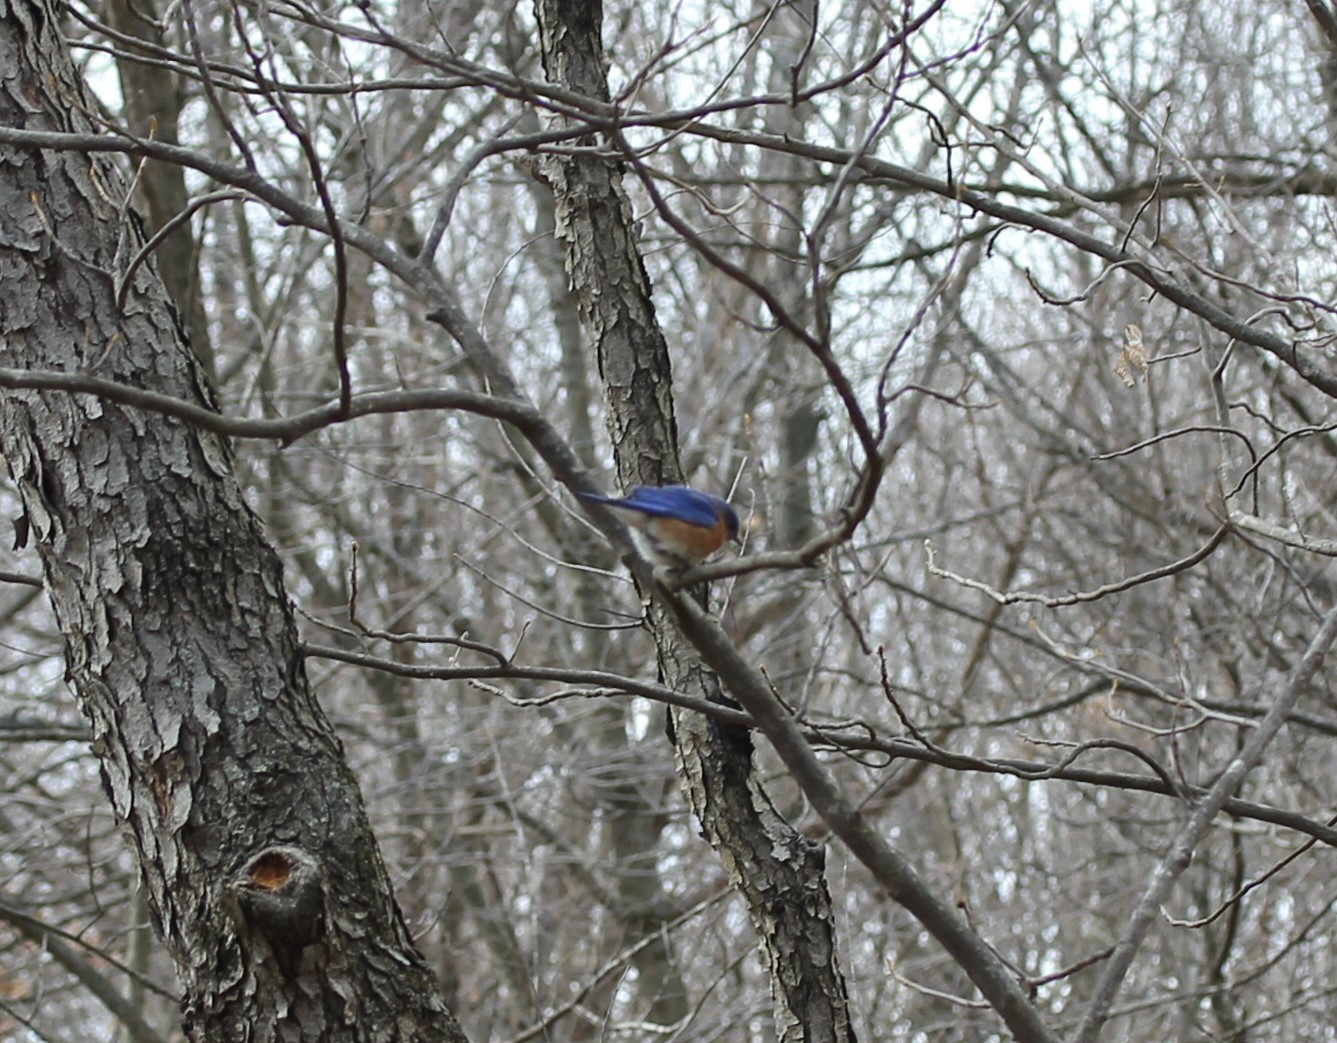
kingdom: Animalia
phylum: Chordata
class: Aves
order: Passeriformes
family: Turdidae
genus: Sialia
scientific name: Sialia sialis
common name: Eastern bluebird
